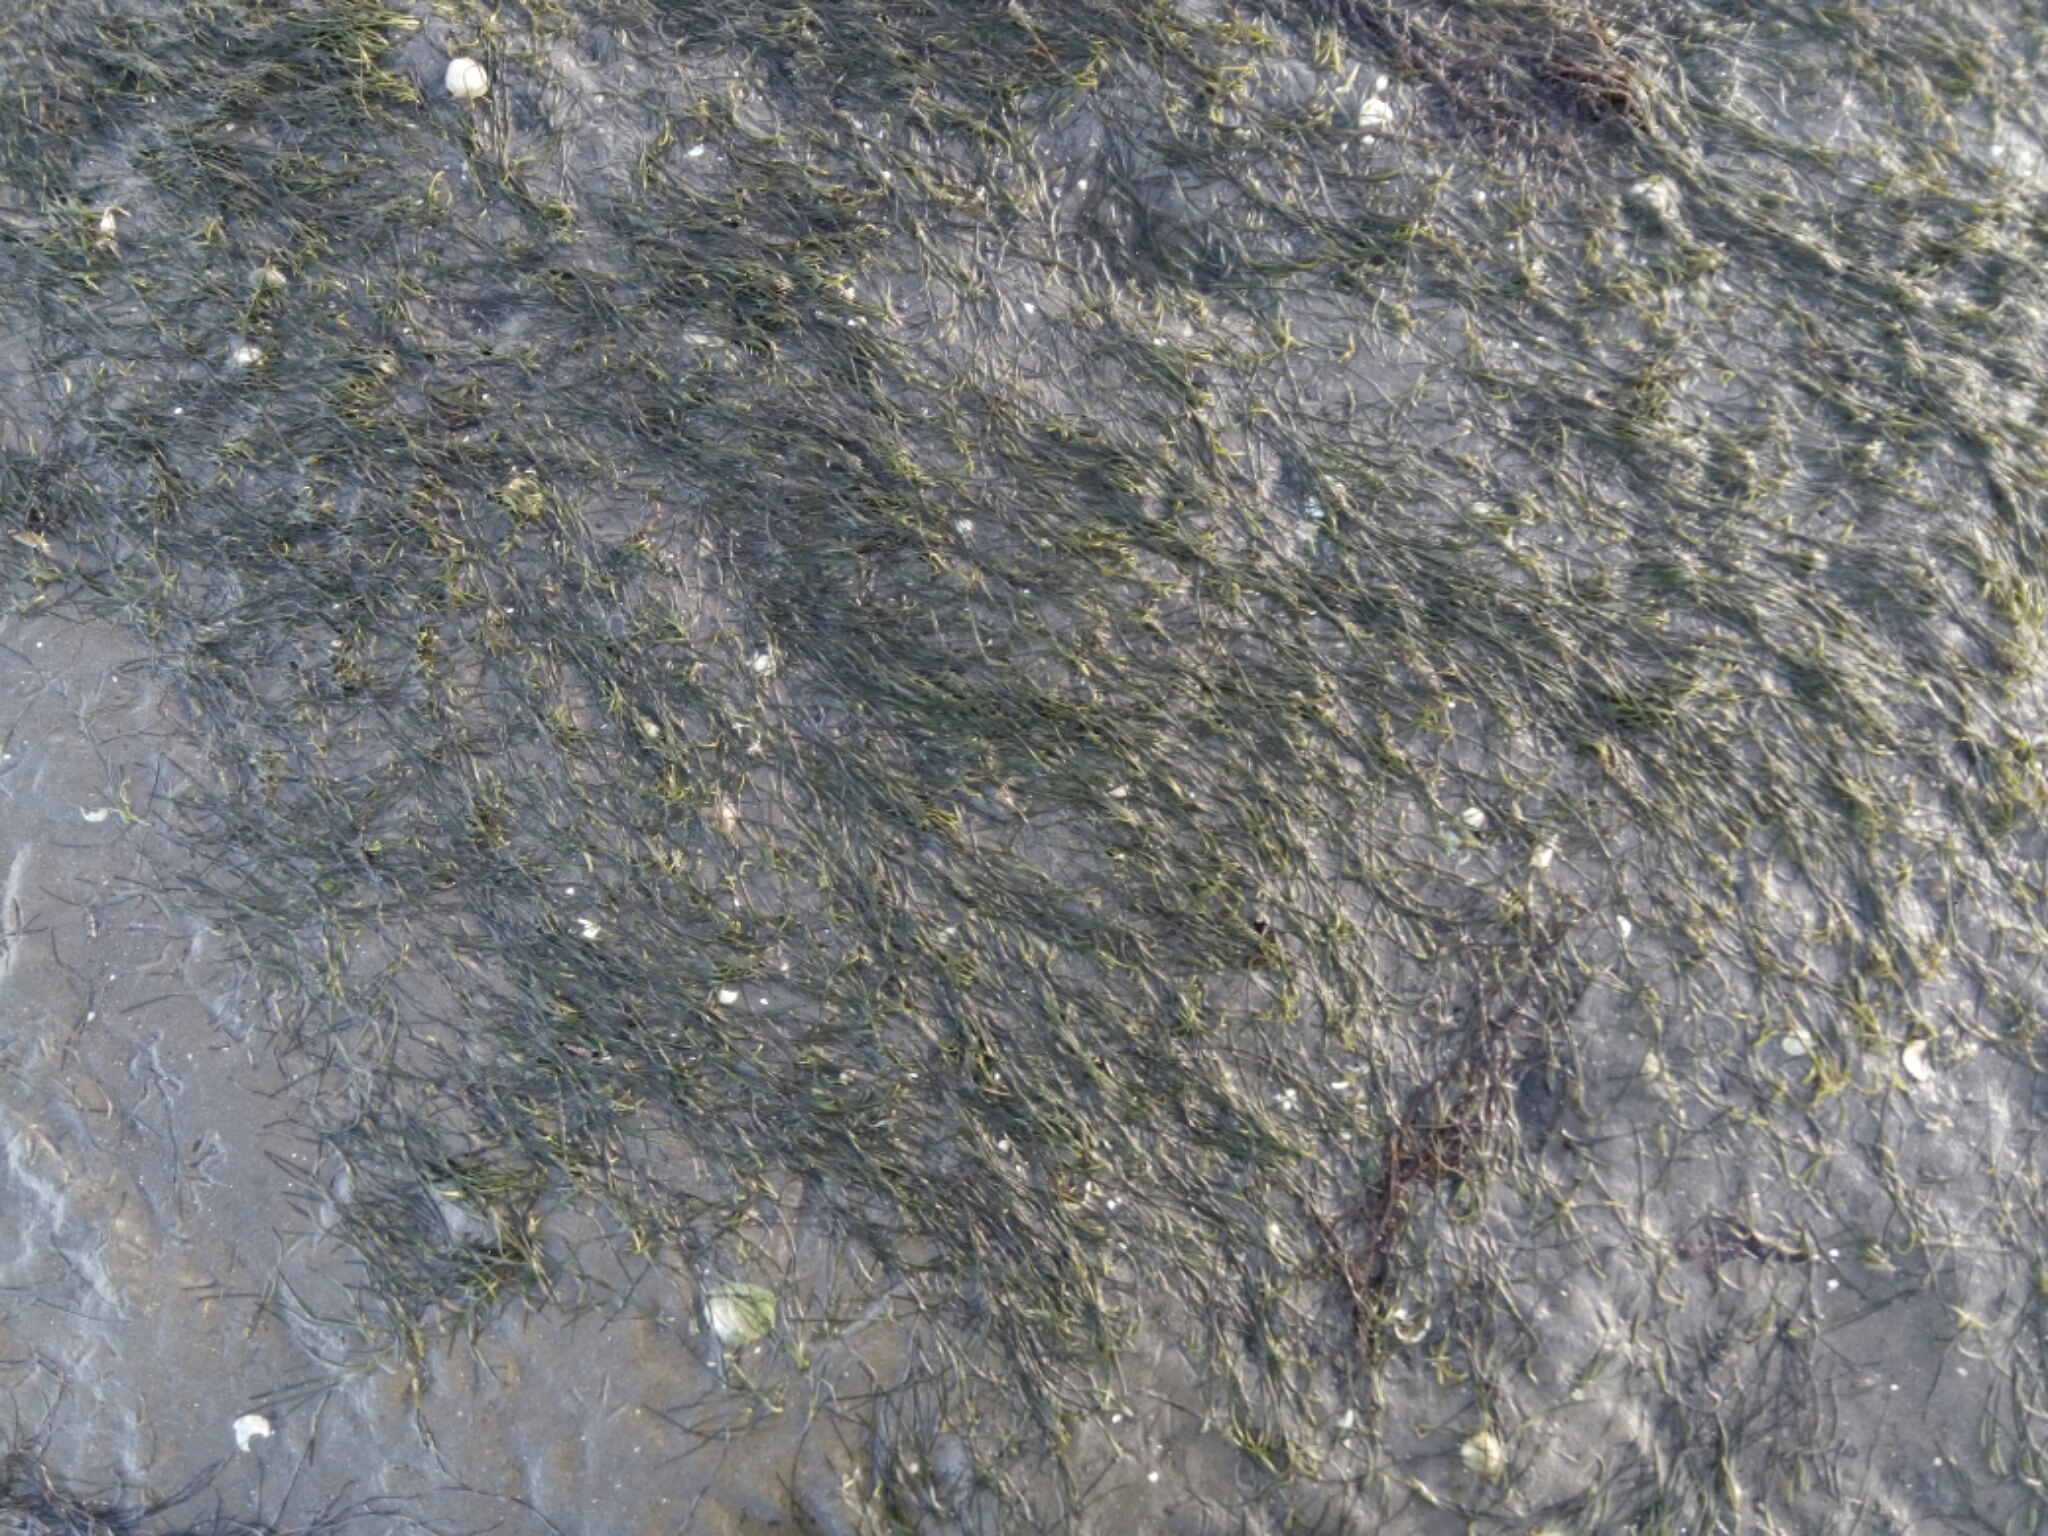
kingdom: Plantae
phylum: Tracheophyta
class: Liliopsida
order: Alismatales
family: Zosteraceae
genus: Zostera
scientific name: Zostera noltii
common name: Dwarf eelgrass
